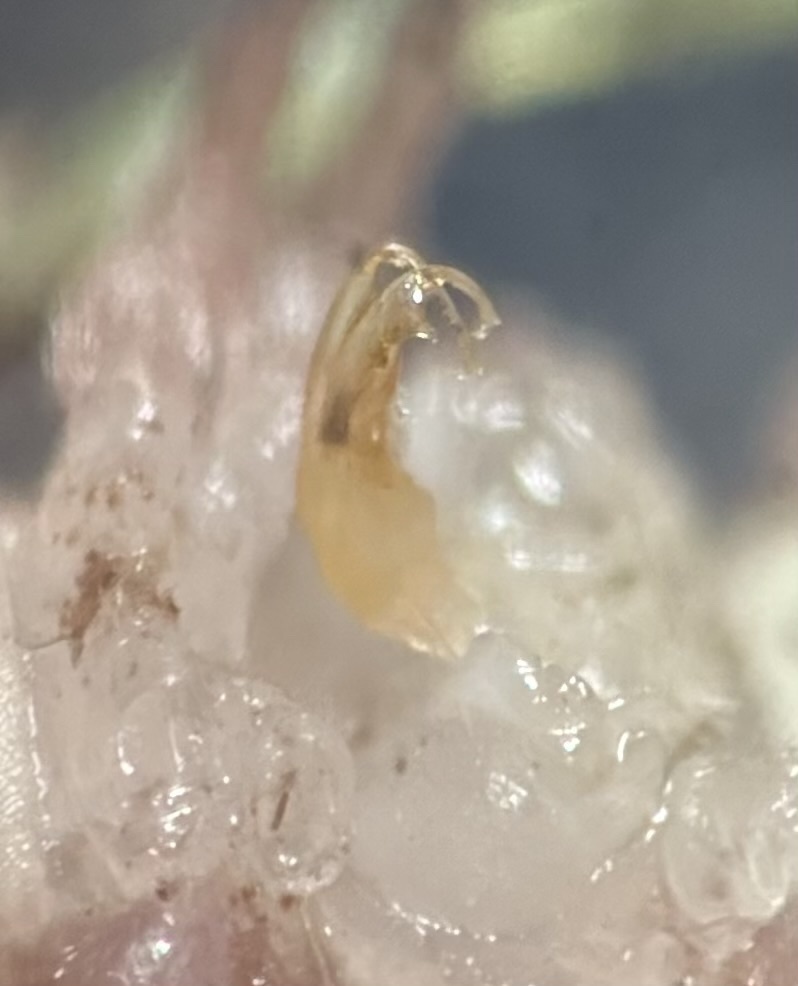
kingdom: Animalia
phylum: Arthropoda
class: Diplopoda
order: Polydesmida
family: Polydesmidae
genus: Polydesmus
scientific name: Polydesmus angustus
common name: Flat millipede
